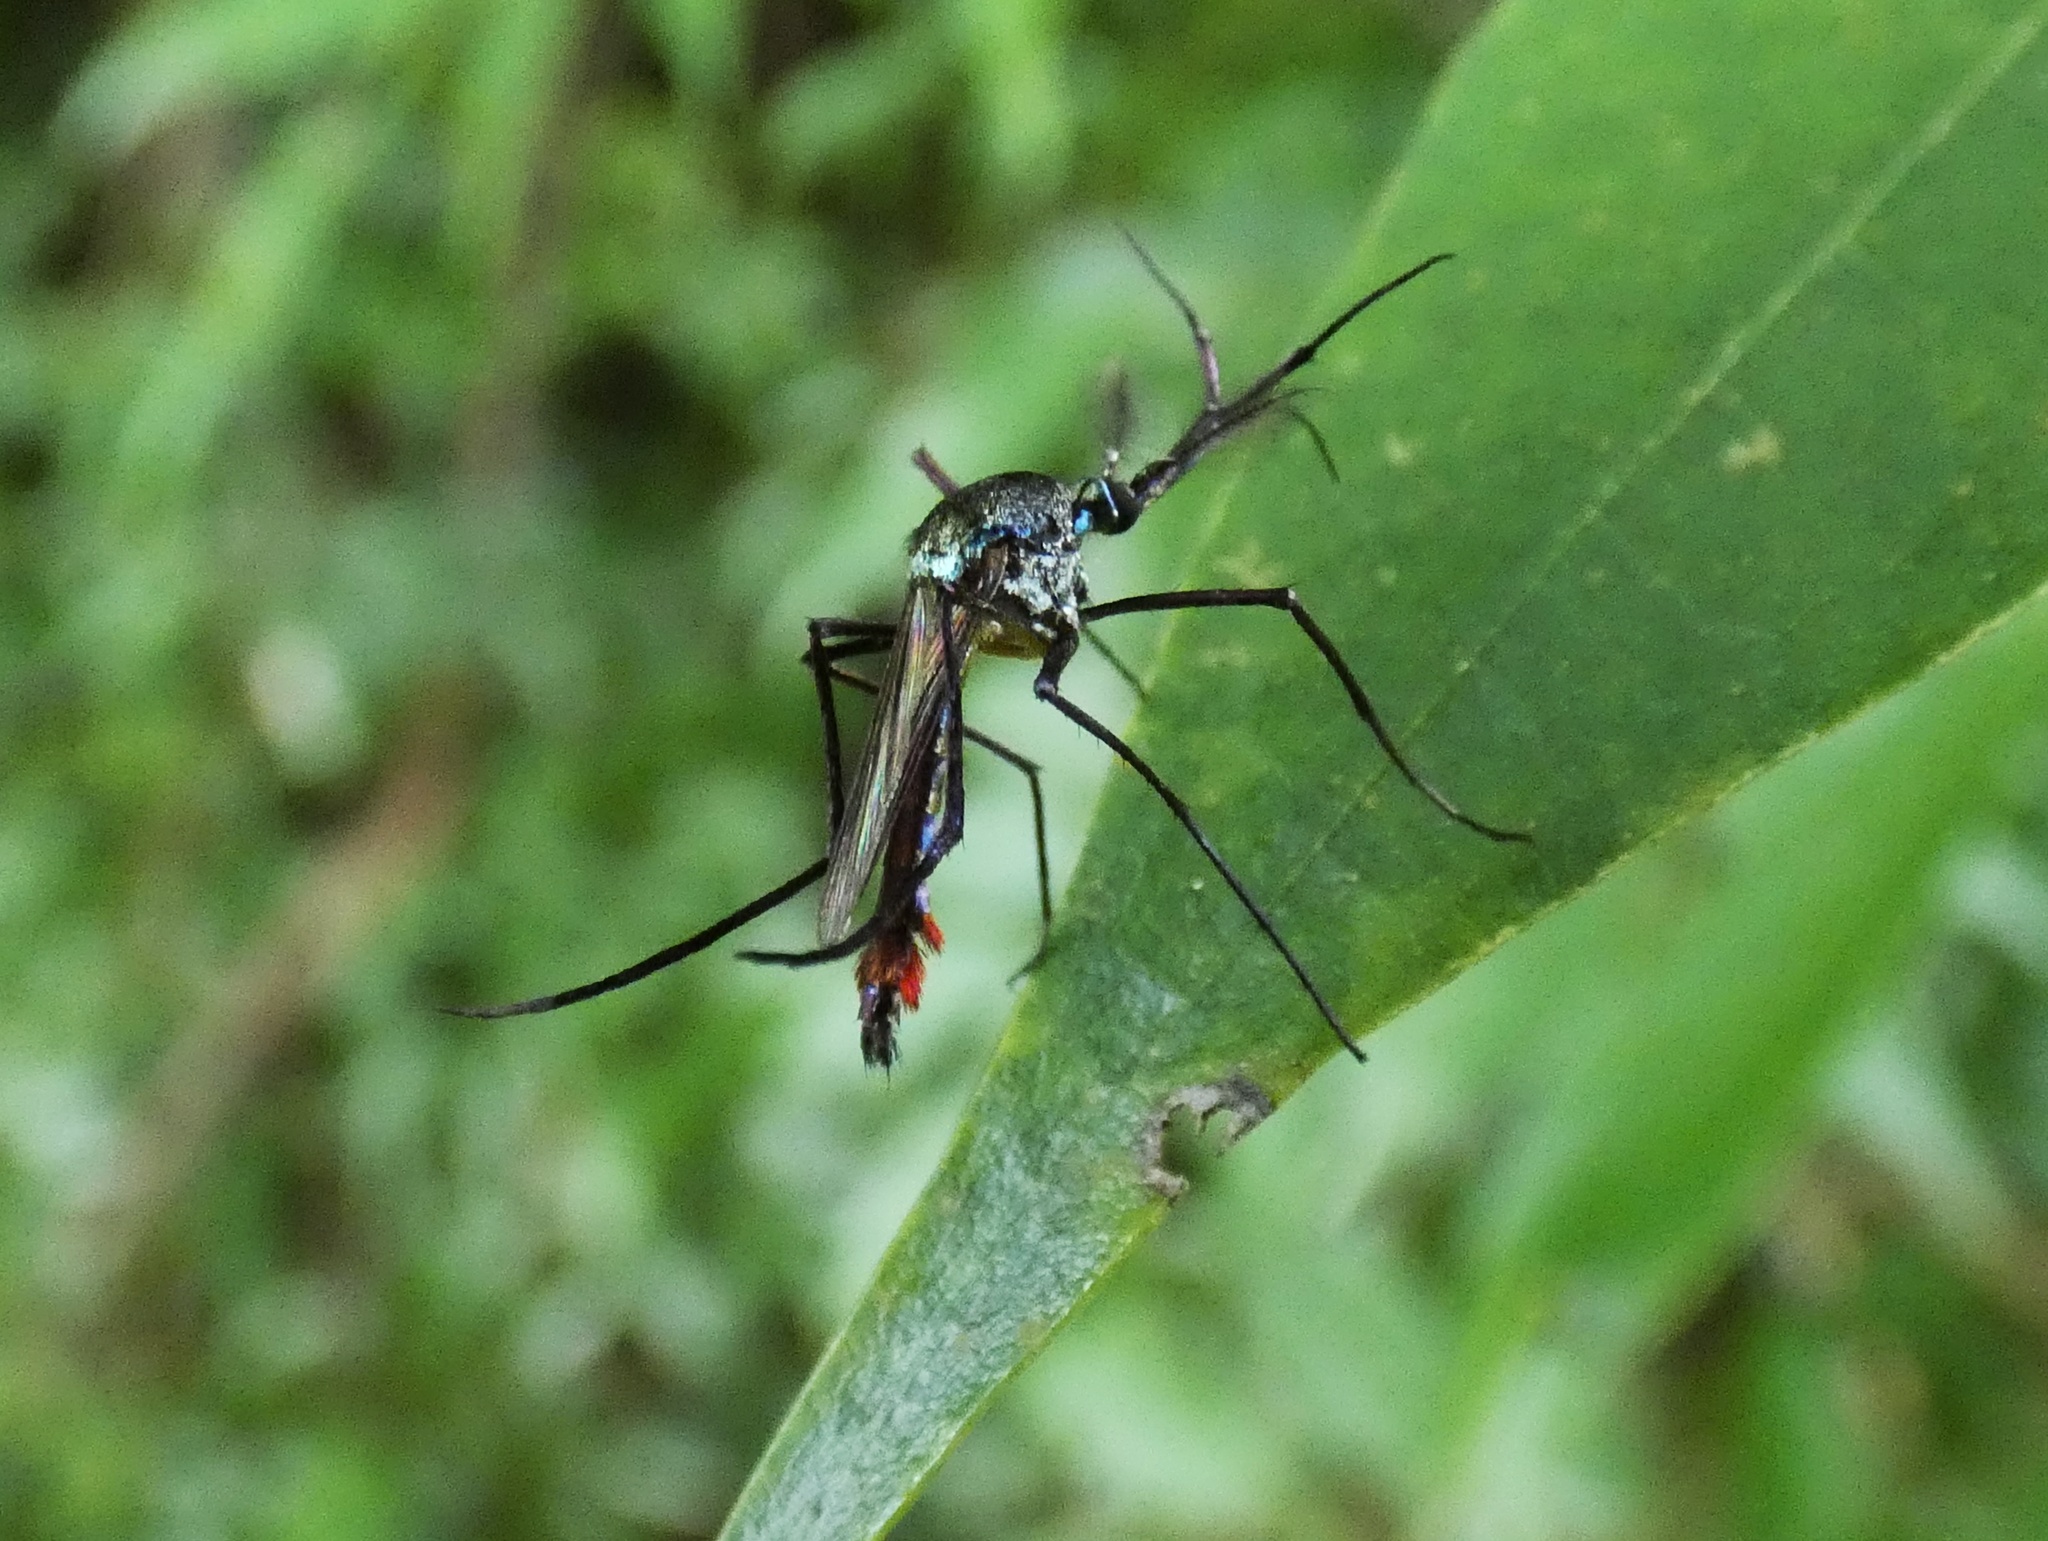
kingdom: Animalia
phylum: Arthropoda
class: Insecta
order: Diptera
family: Culicidae
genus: Toxorhynchites
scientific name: Toxorhynchites haemorrhoidalis
